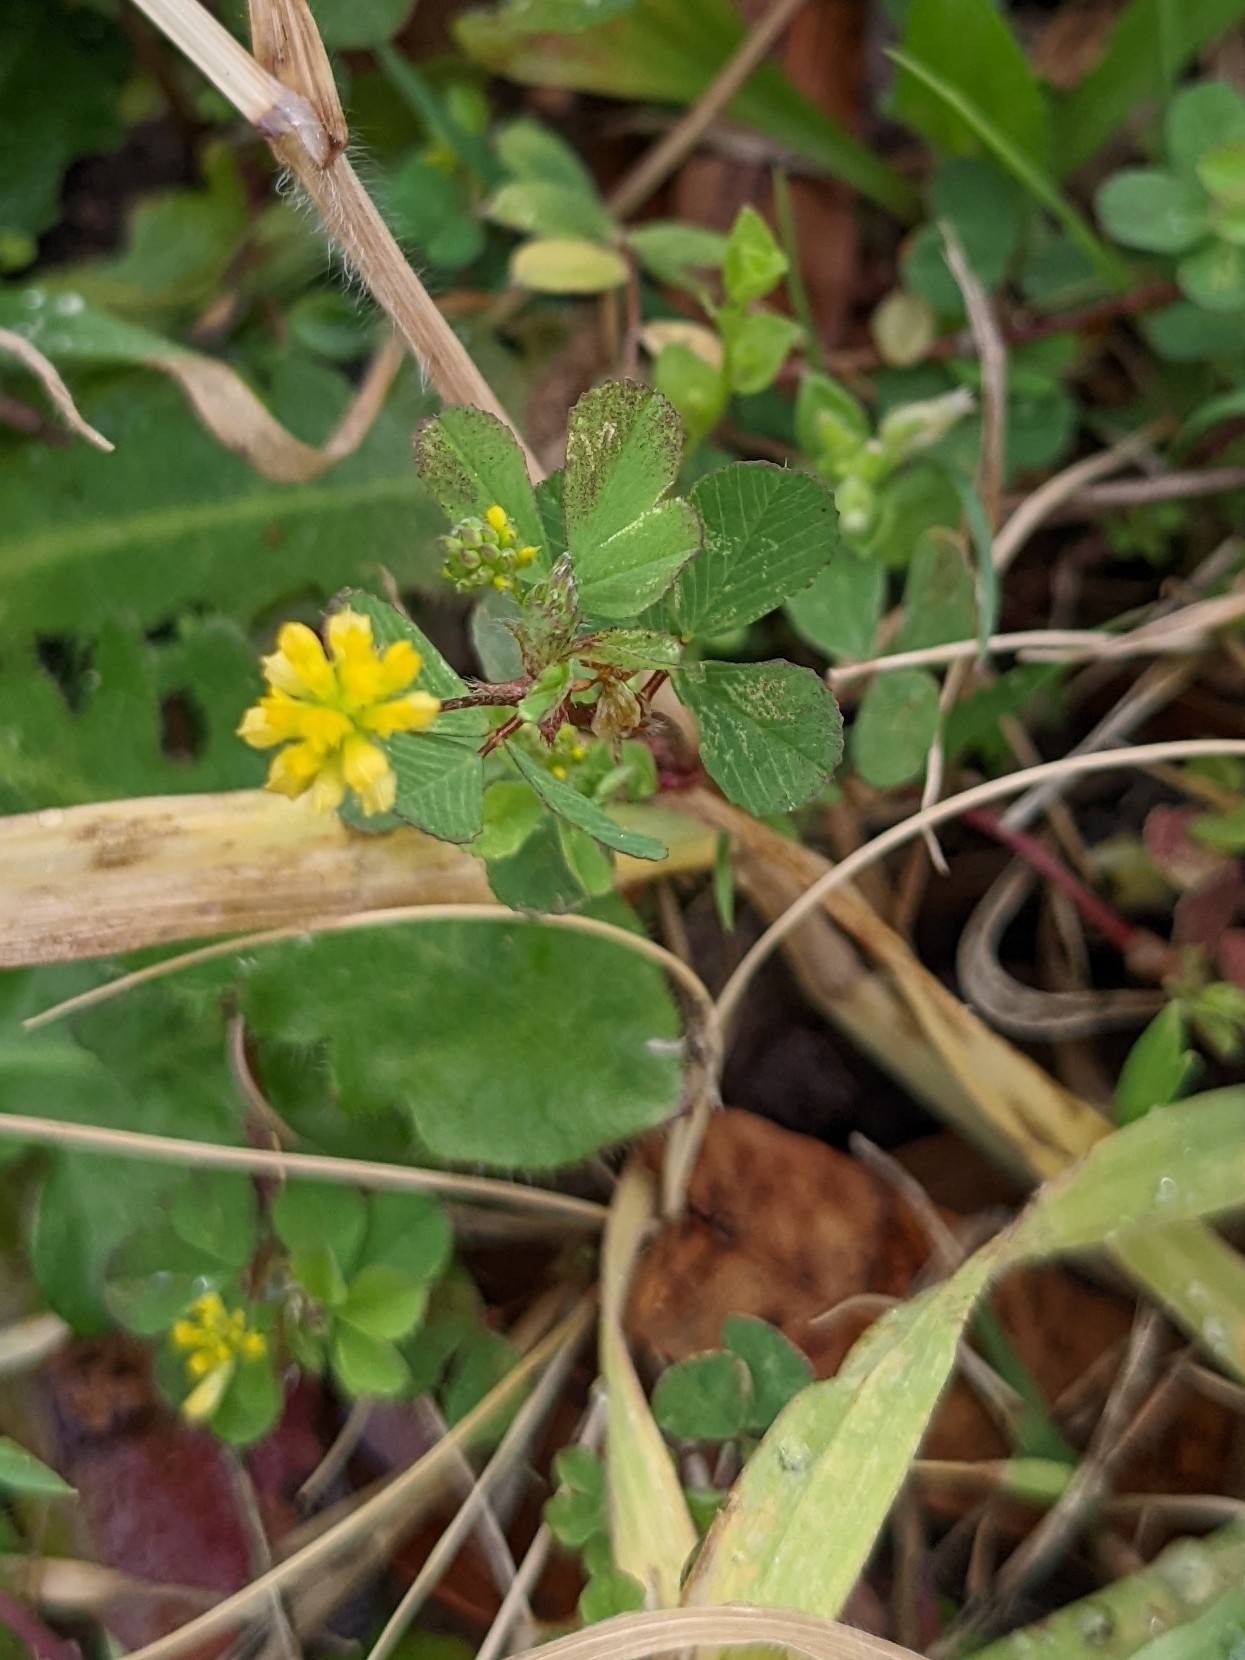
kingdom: Plantae
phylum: Tracheophyta
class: Magnoliopsida
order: Fabales
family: Fabaceae
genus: Trifolium
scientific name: Trifolium dubium
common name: Suckling clover
